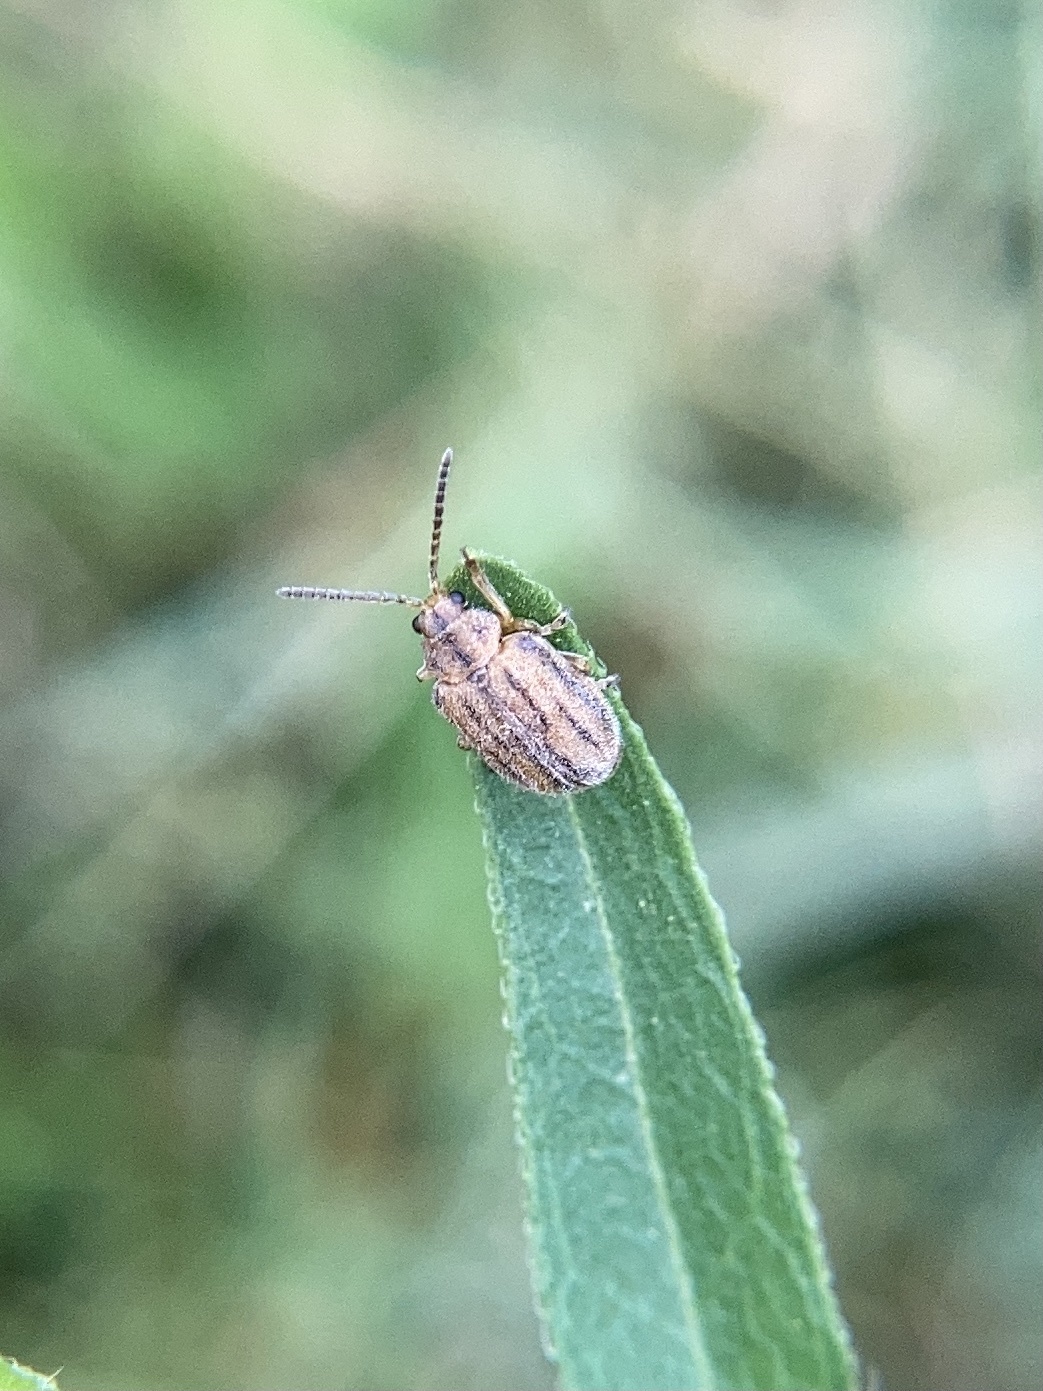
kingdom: Animalia
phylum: Arthropoda
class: Insecta
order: Coleoptera
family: Chrysomelidae
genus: Ophraella
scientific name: Ophraella communa
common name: Ragweed leaf beetle
